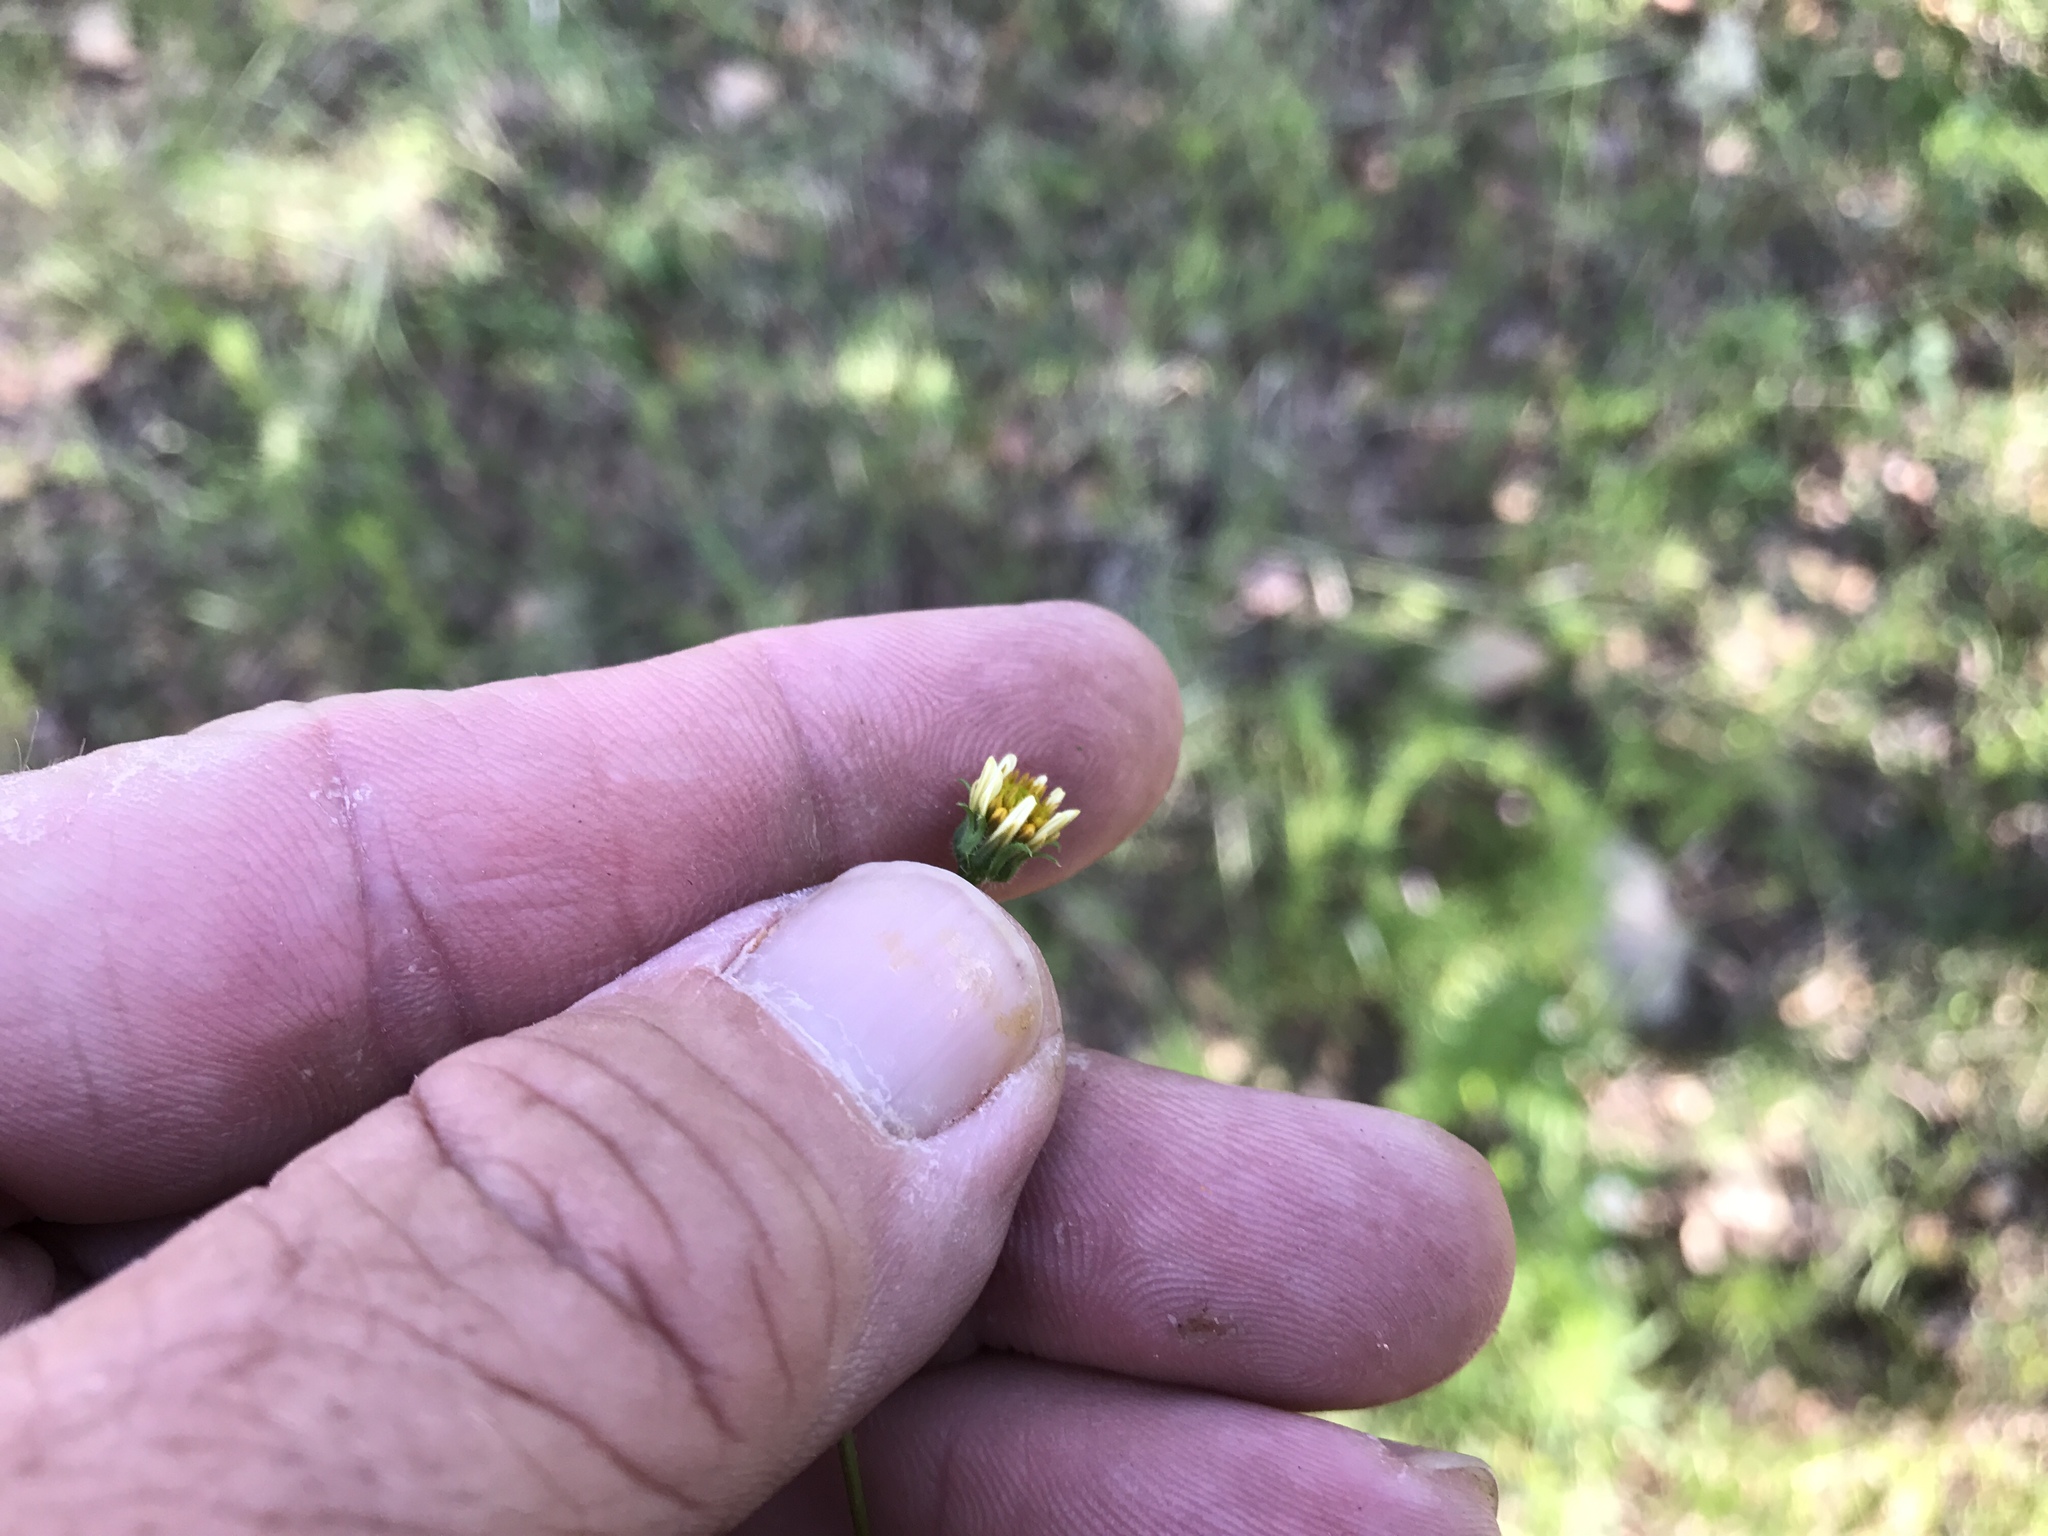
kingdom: Plantae
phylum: Tracheophyta
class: Magnoliopsida
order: Asterales
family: Asteraceae
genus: Bidens
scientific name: Bidens bigelovii
